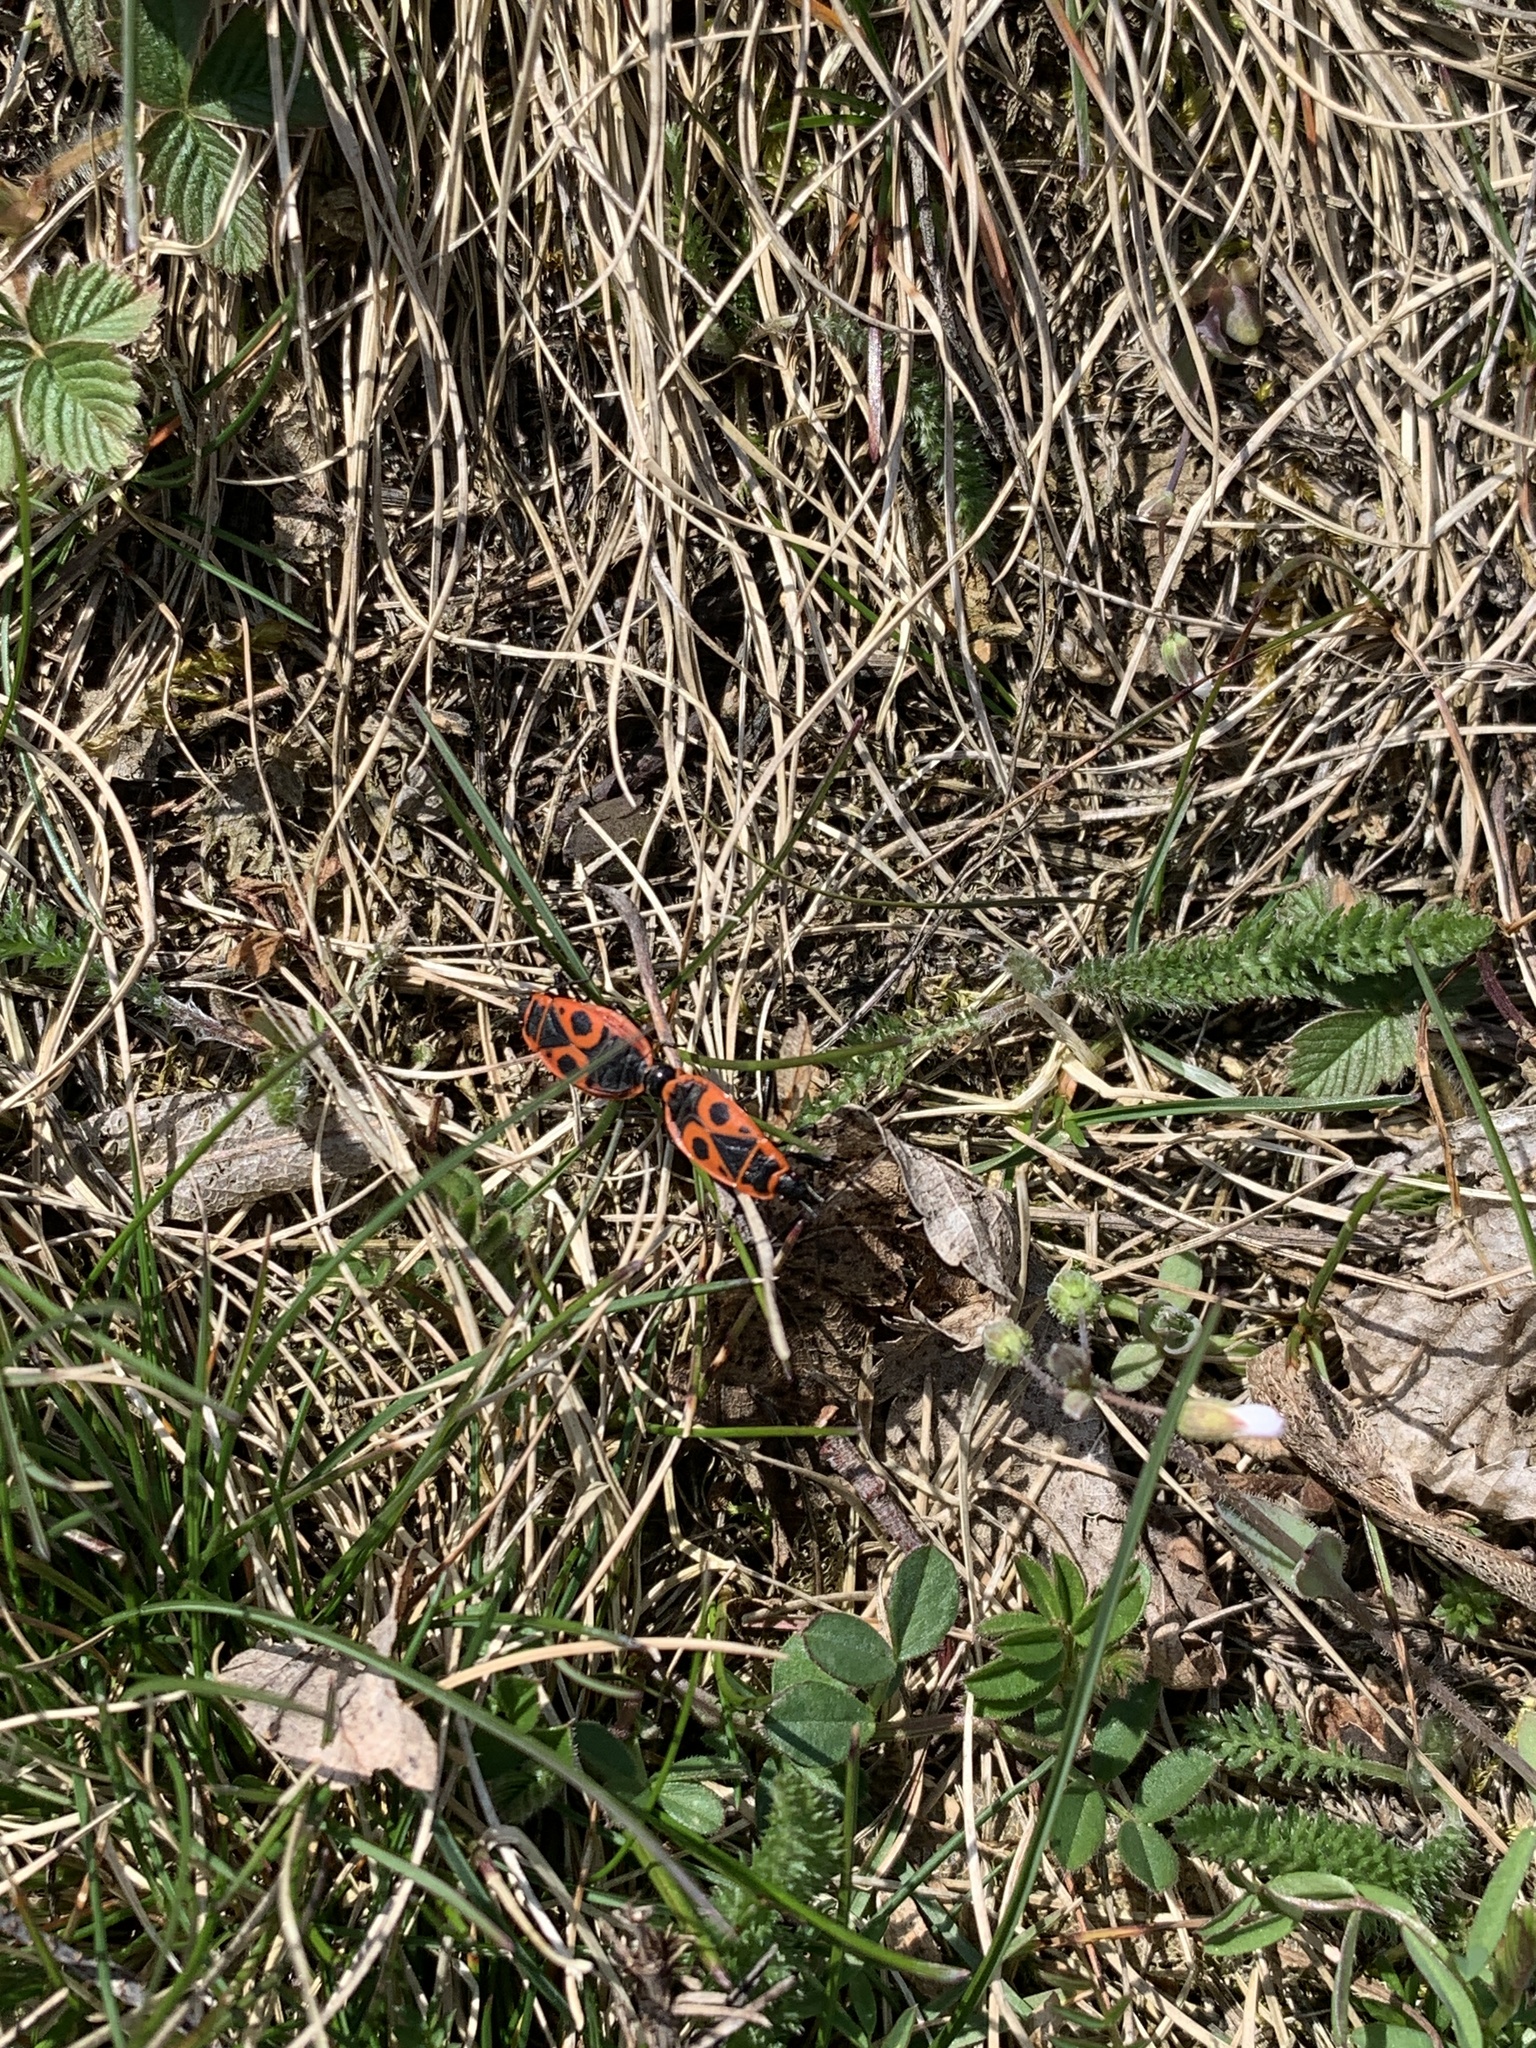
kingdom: Animalia
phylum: Arthropoda
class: Insecta
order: Hemiptera
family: Pyrrhocoridae
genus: Pyrrhocoris
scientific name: Pyrrhocoris apterus
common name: Firebug
